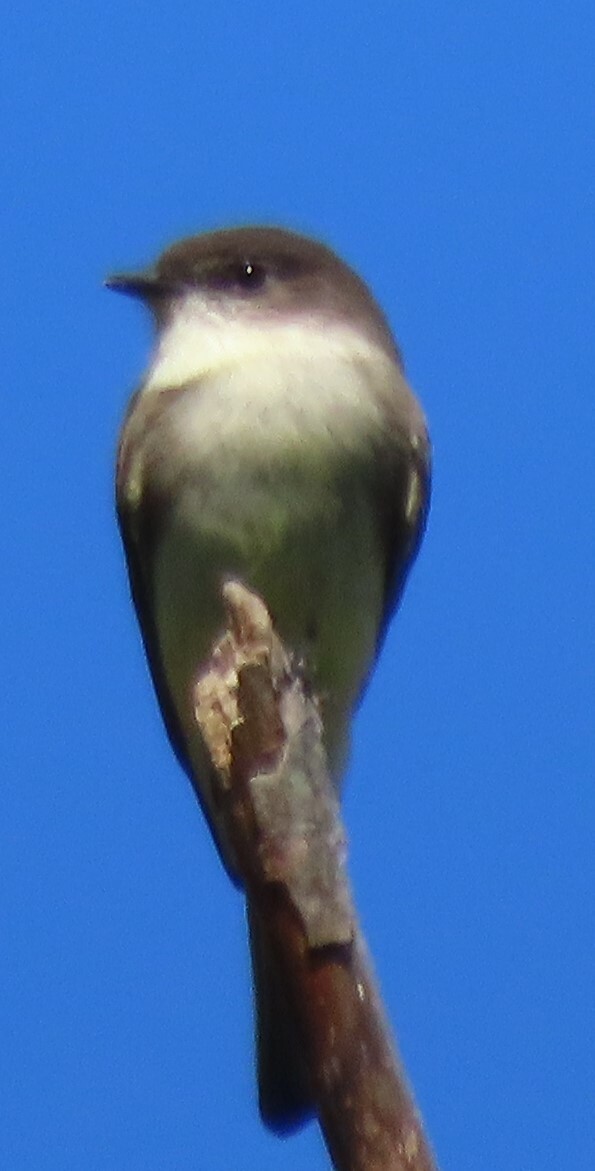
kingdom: Animalia
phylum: Chordata
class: Aves
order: Passeriformes
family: Tyrannidae
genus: Sayornis
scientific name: Sayornis phoebe
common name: Eastern phoebe
